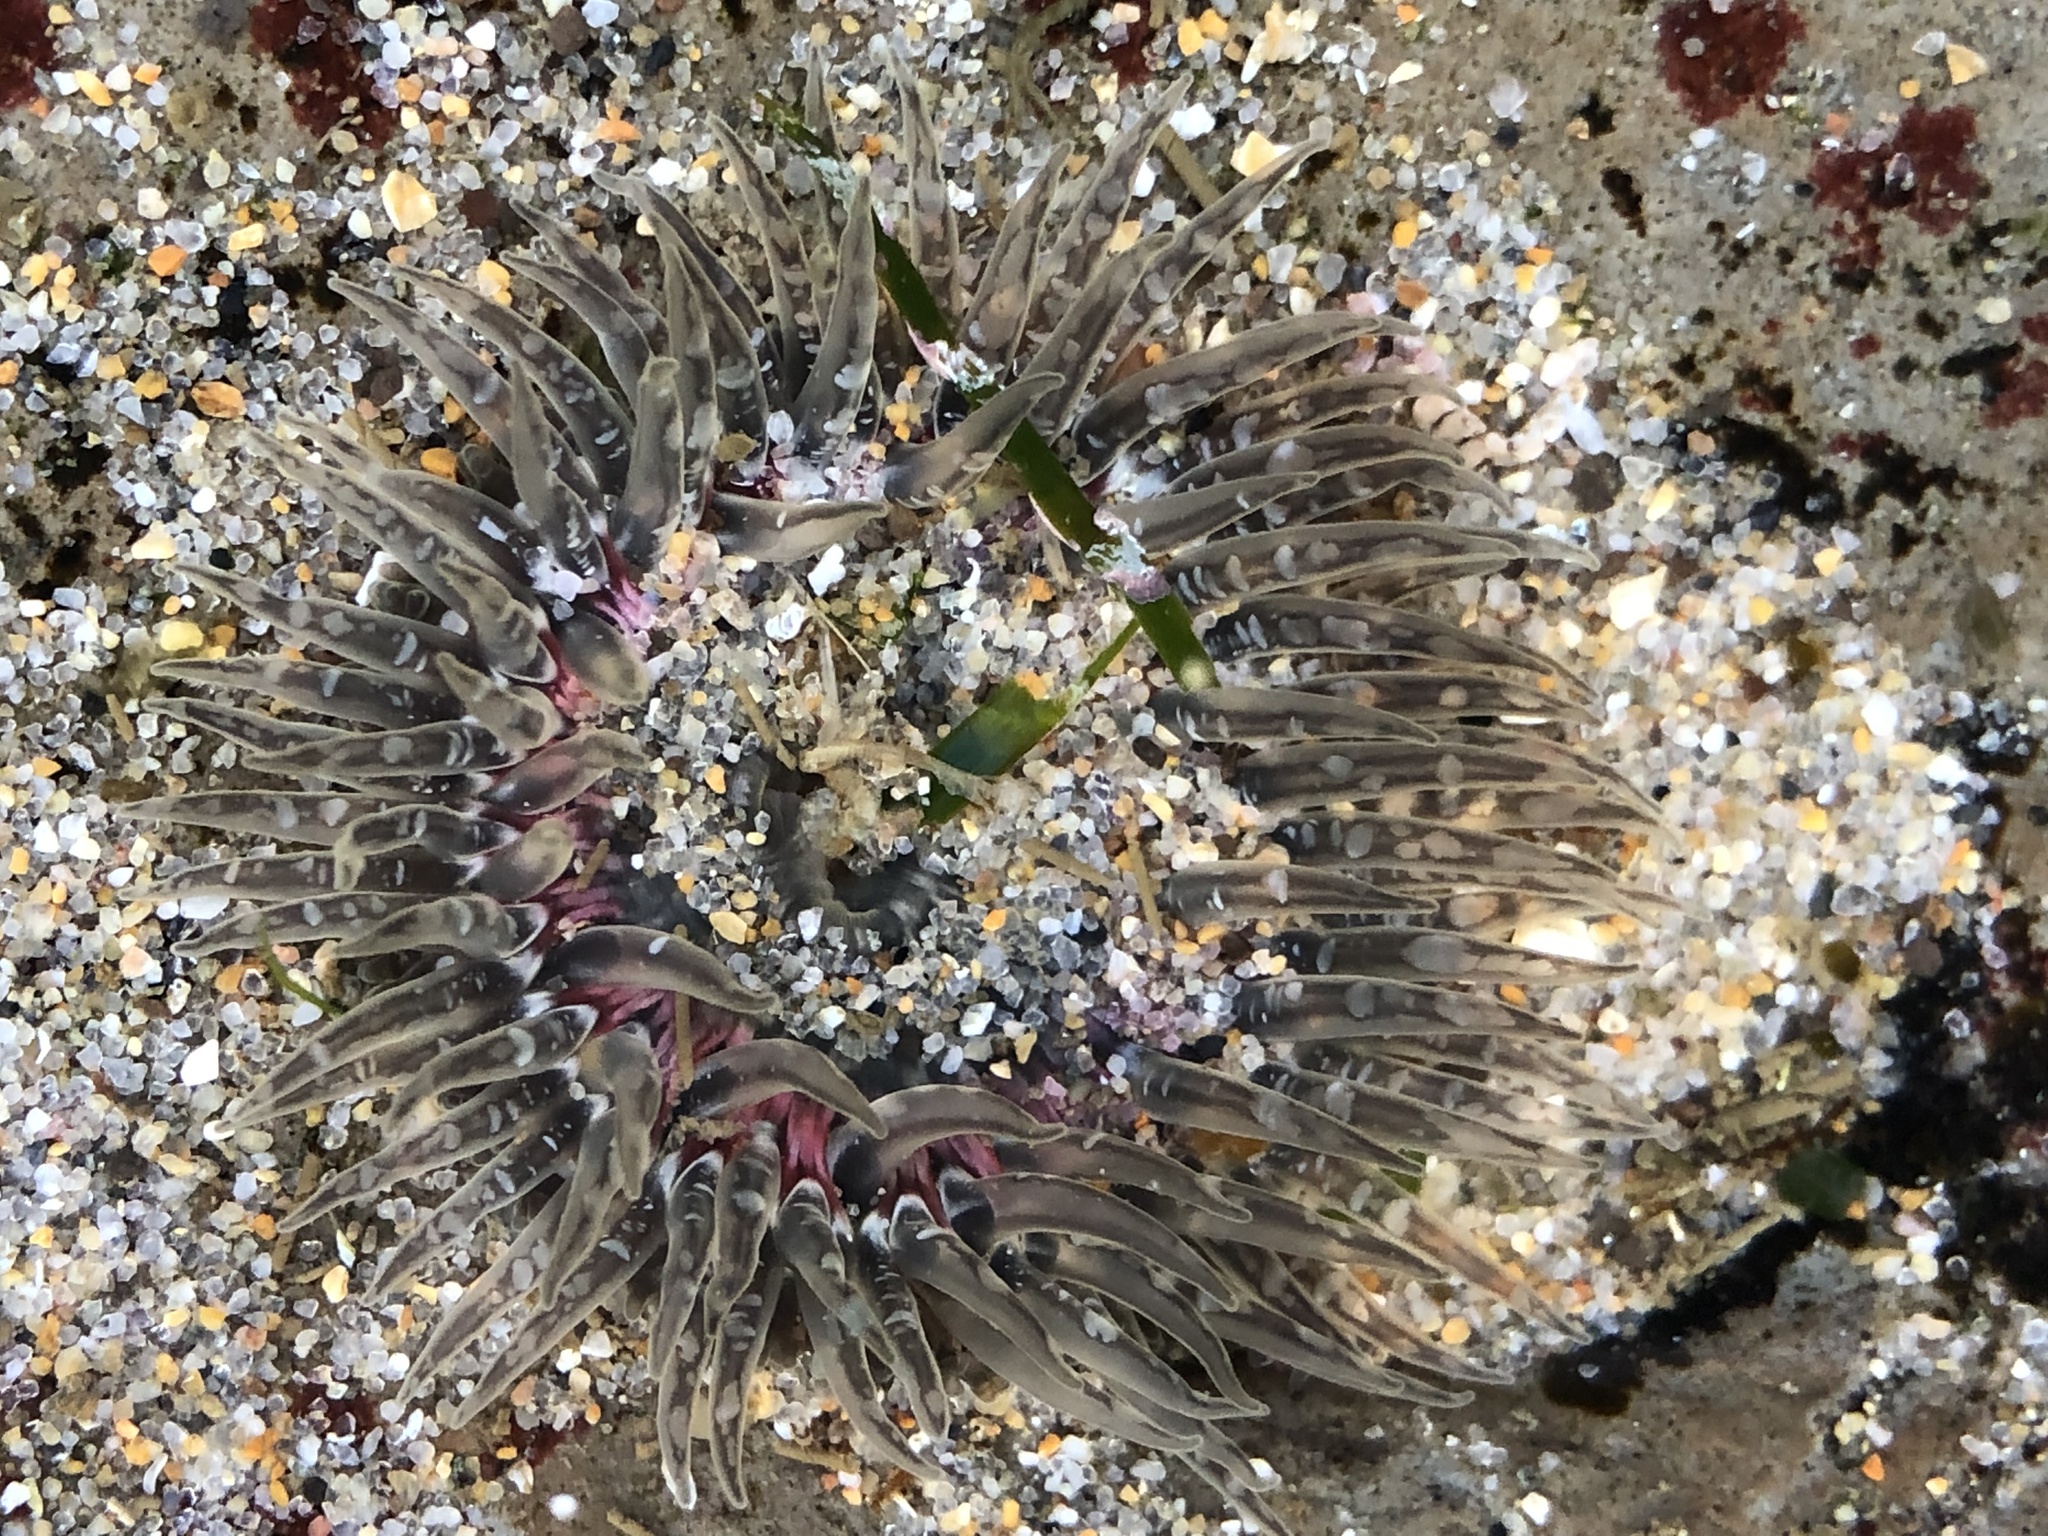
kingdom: Animalia
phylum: Cnidaria
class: Anthozoa
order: Actiniaria
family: Actiniidae
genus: Anthopleura
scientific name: Anthopleura artemisia
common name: Buried sea anemone
